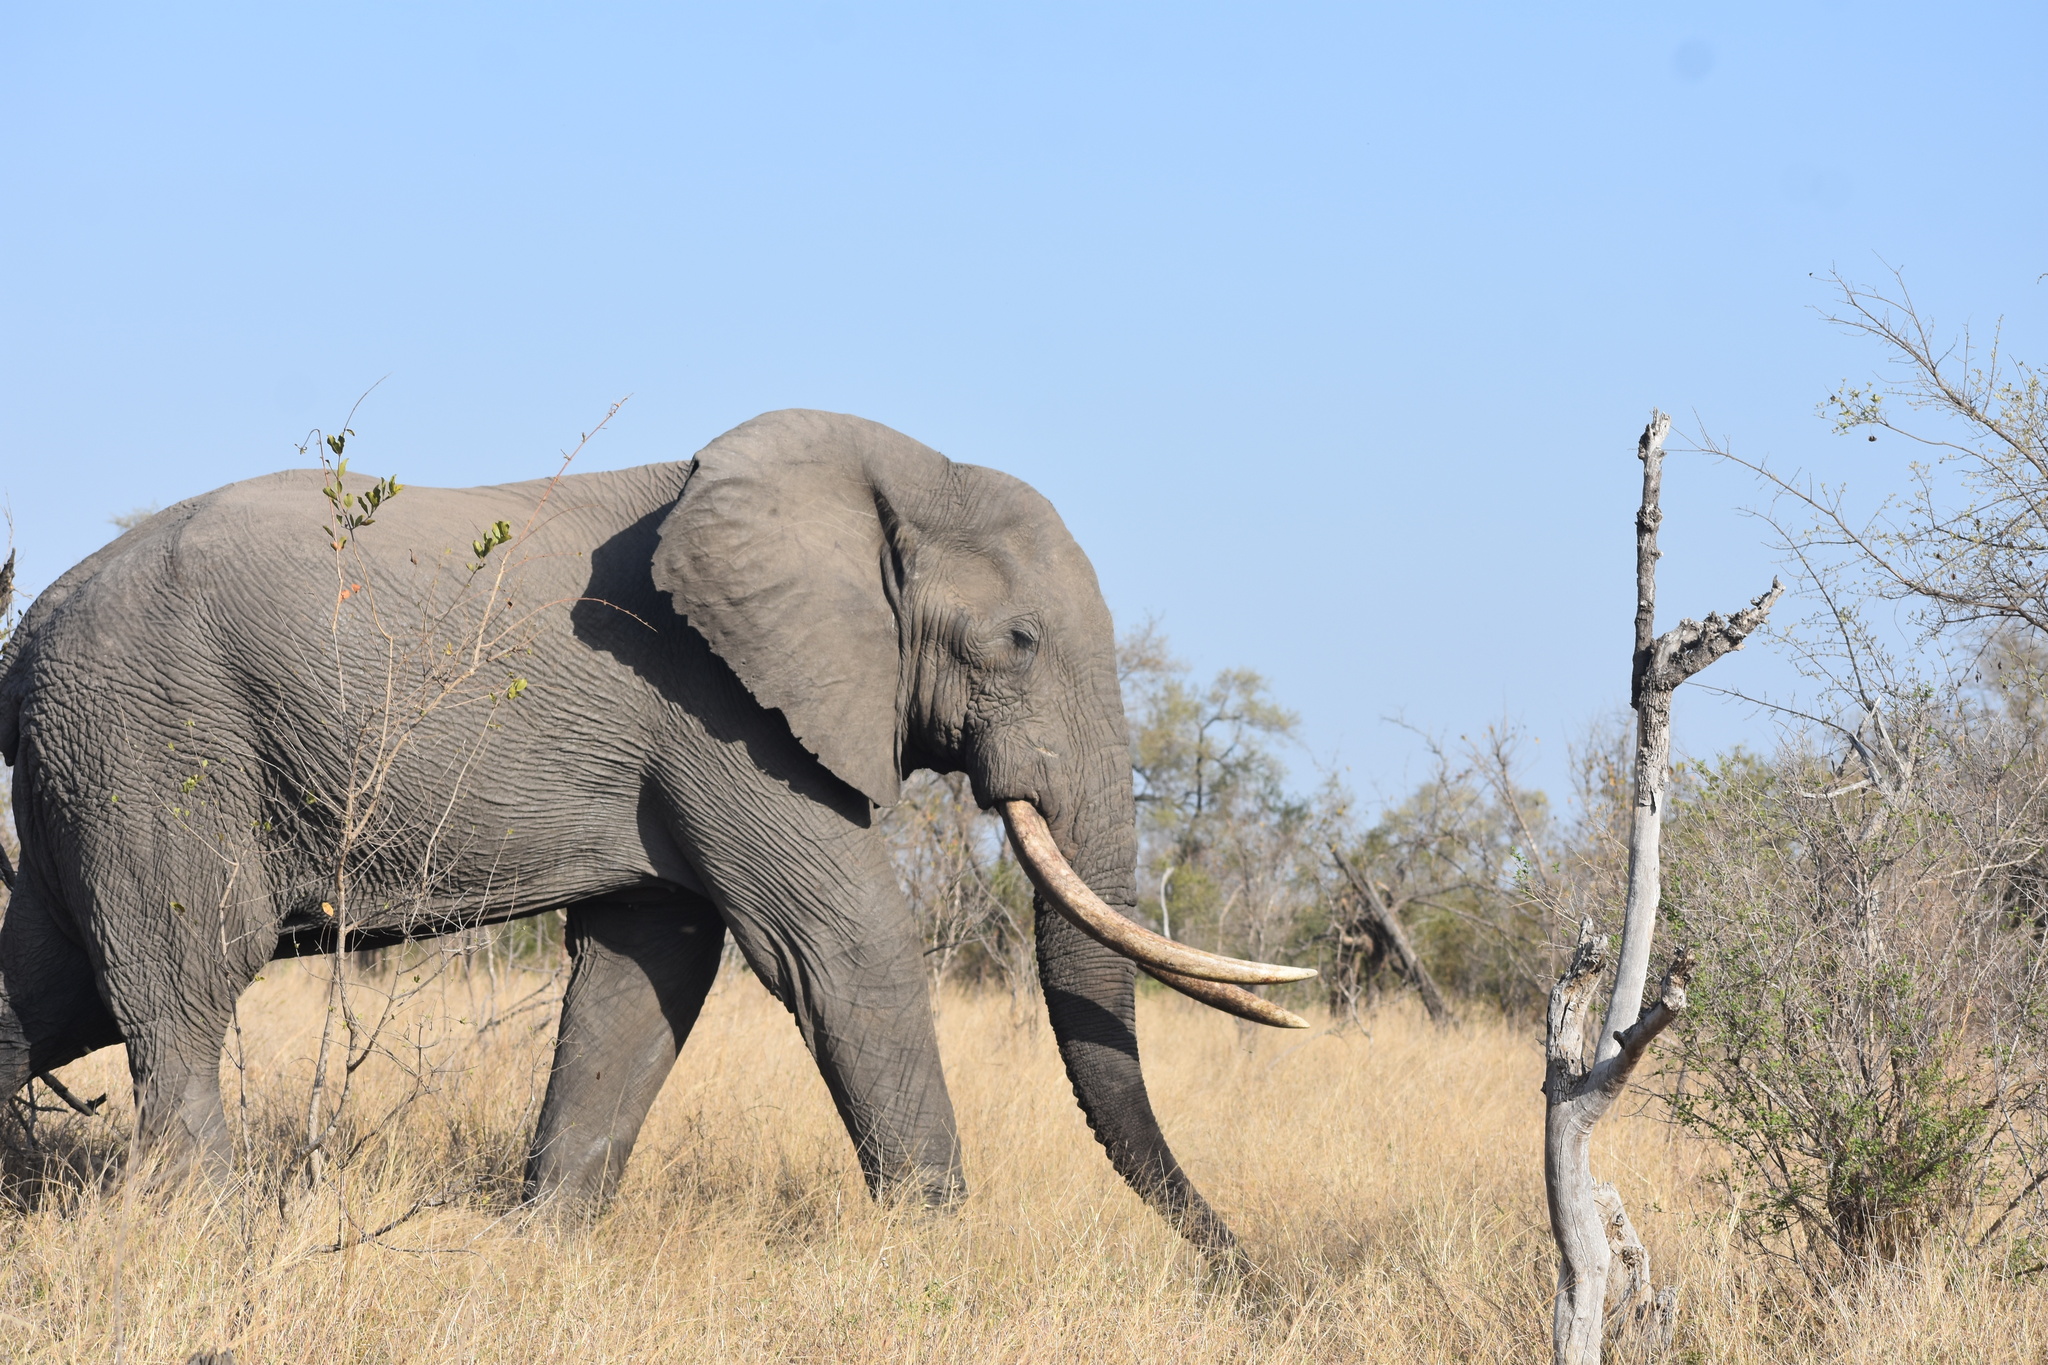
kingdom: Animalia
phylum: Chordata
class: Mammalia
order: Proboscidea
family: Elephantidae
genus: Loxodonta
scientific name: Loxodonta africana
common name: African elephant
